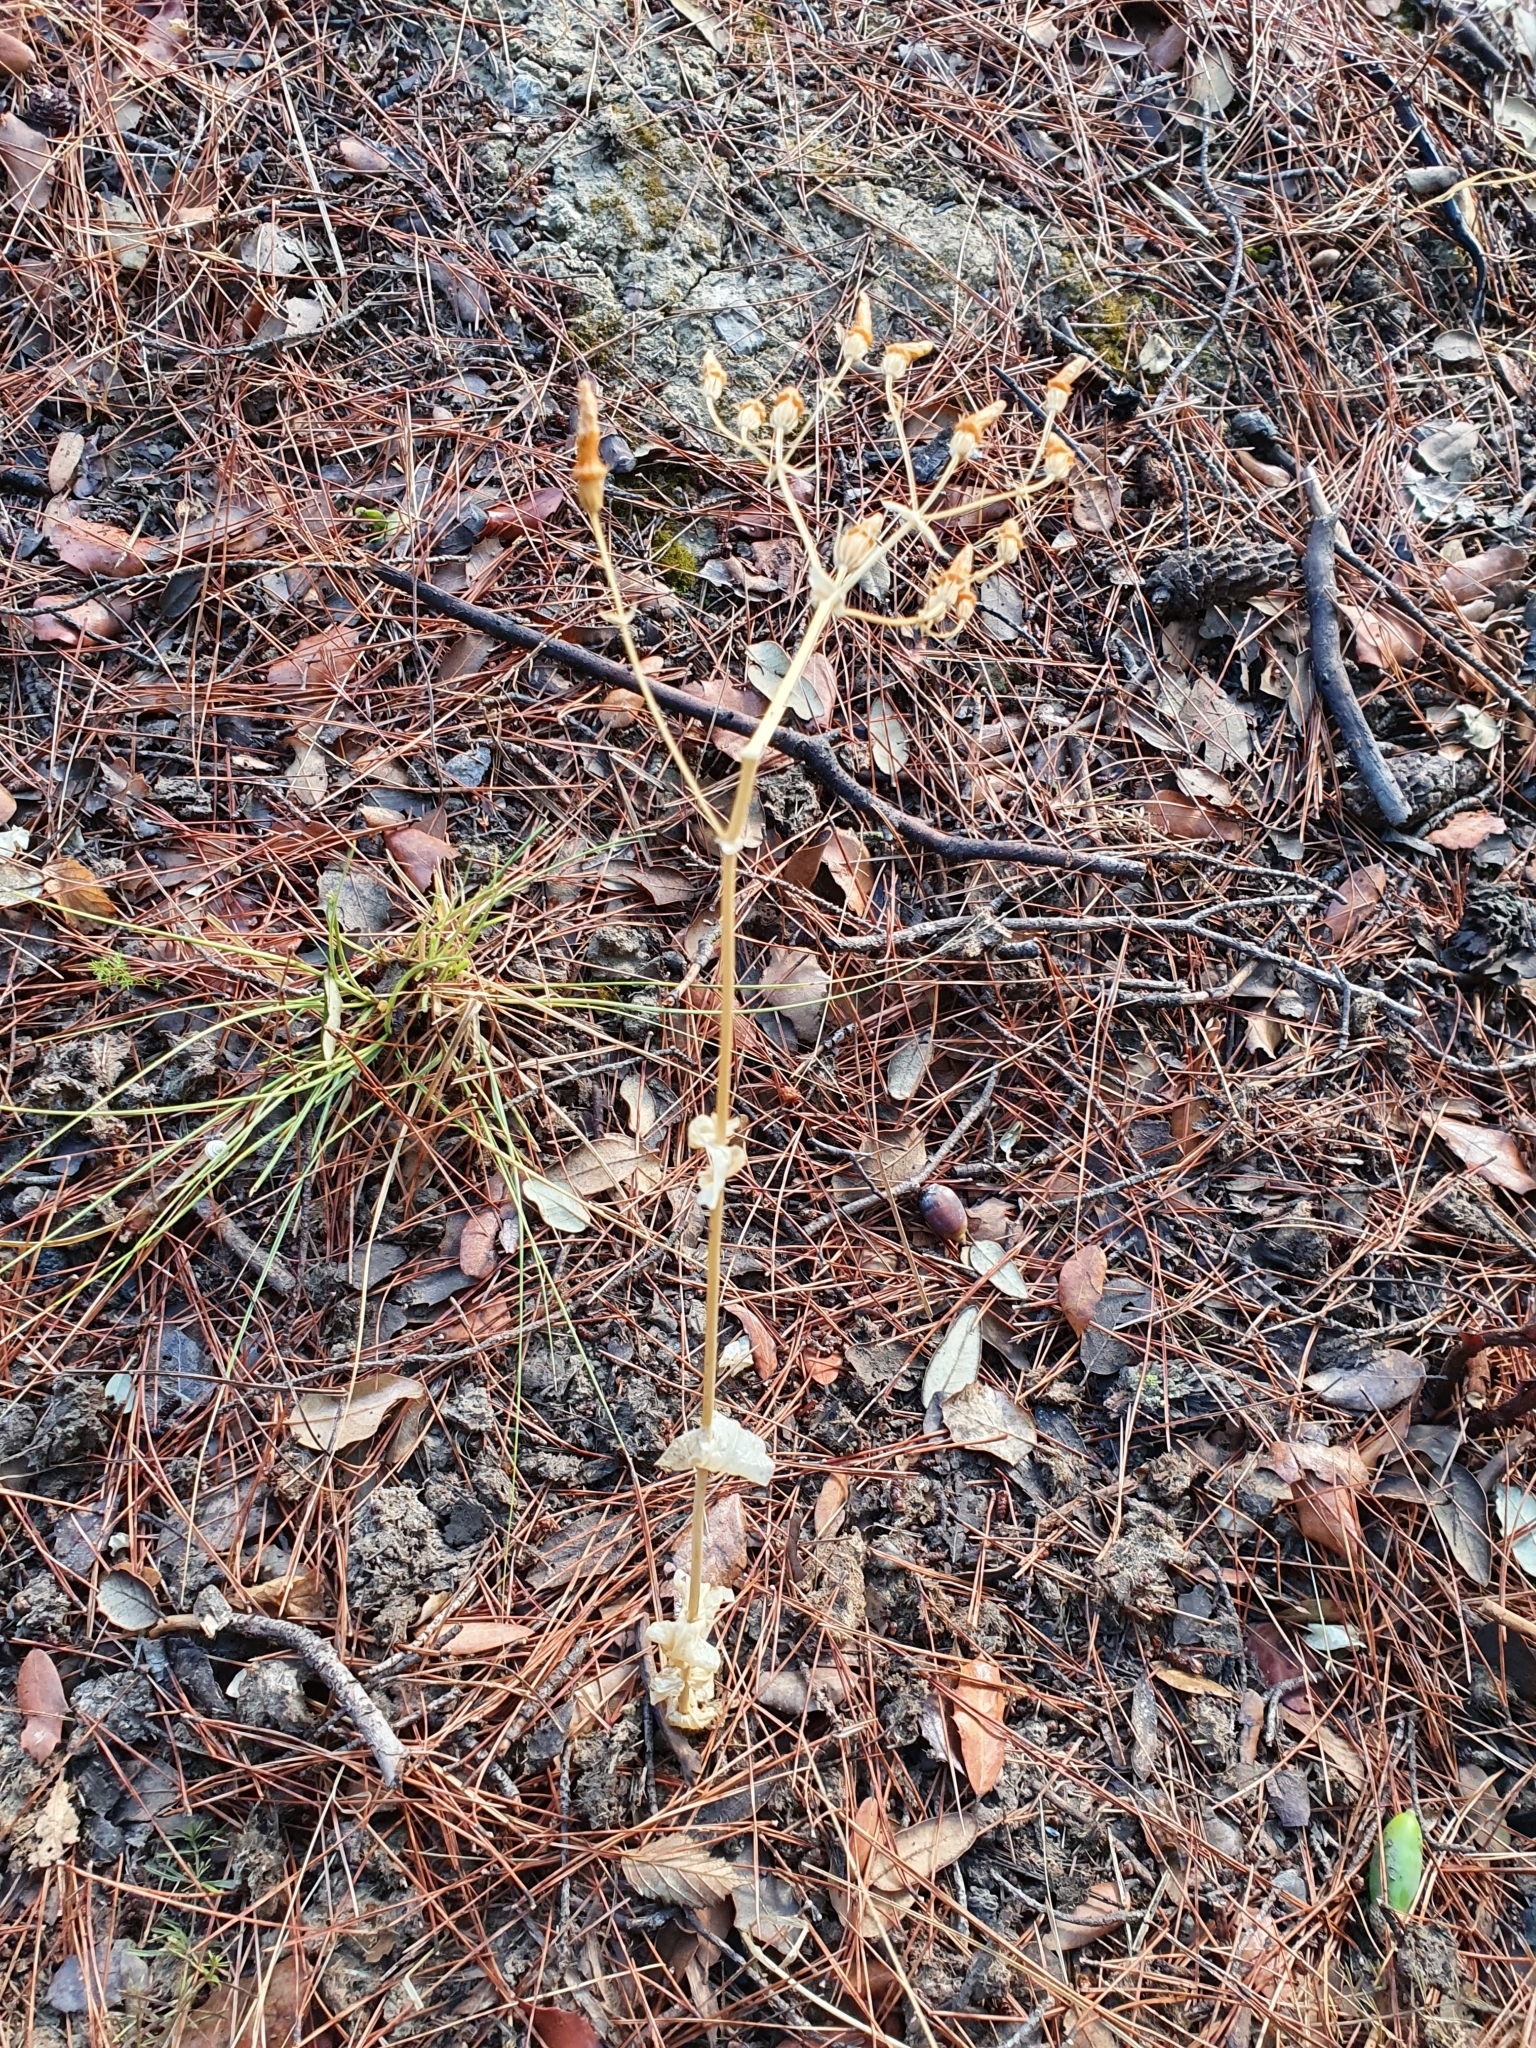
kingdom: Plantae
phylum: Tracheophyta
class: Magnoliopsida
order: Gentianales
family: Gentianaceae
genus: Blackstonia
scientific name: Blackstonia grandiflora
